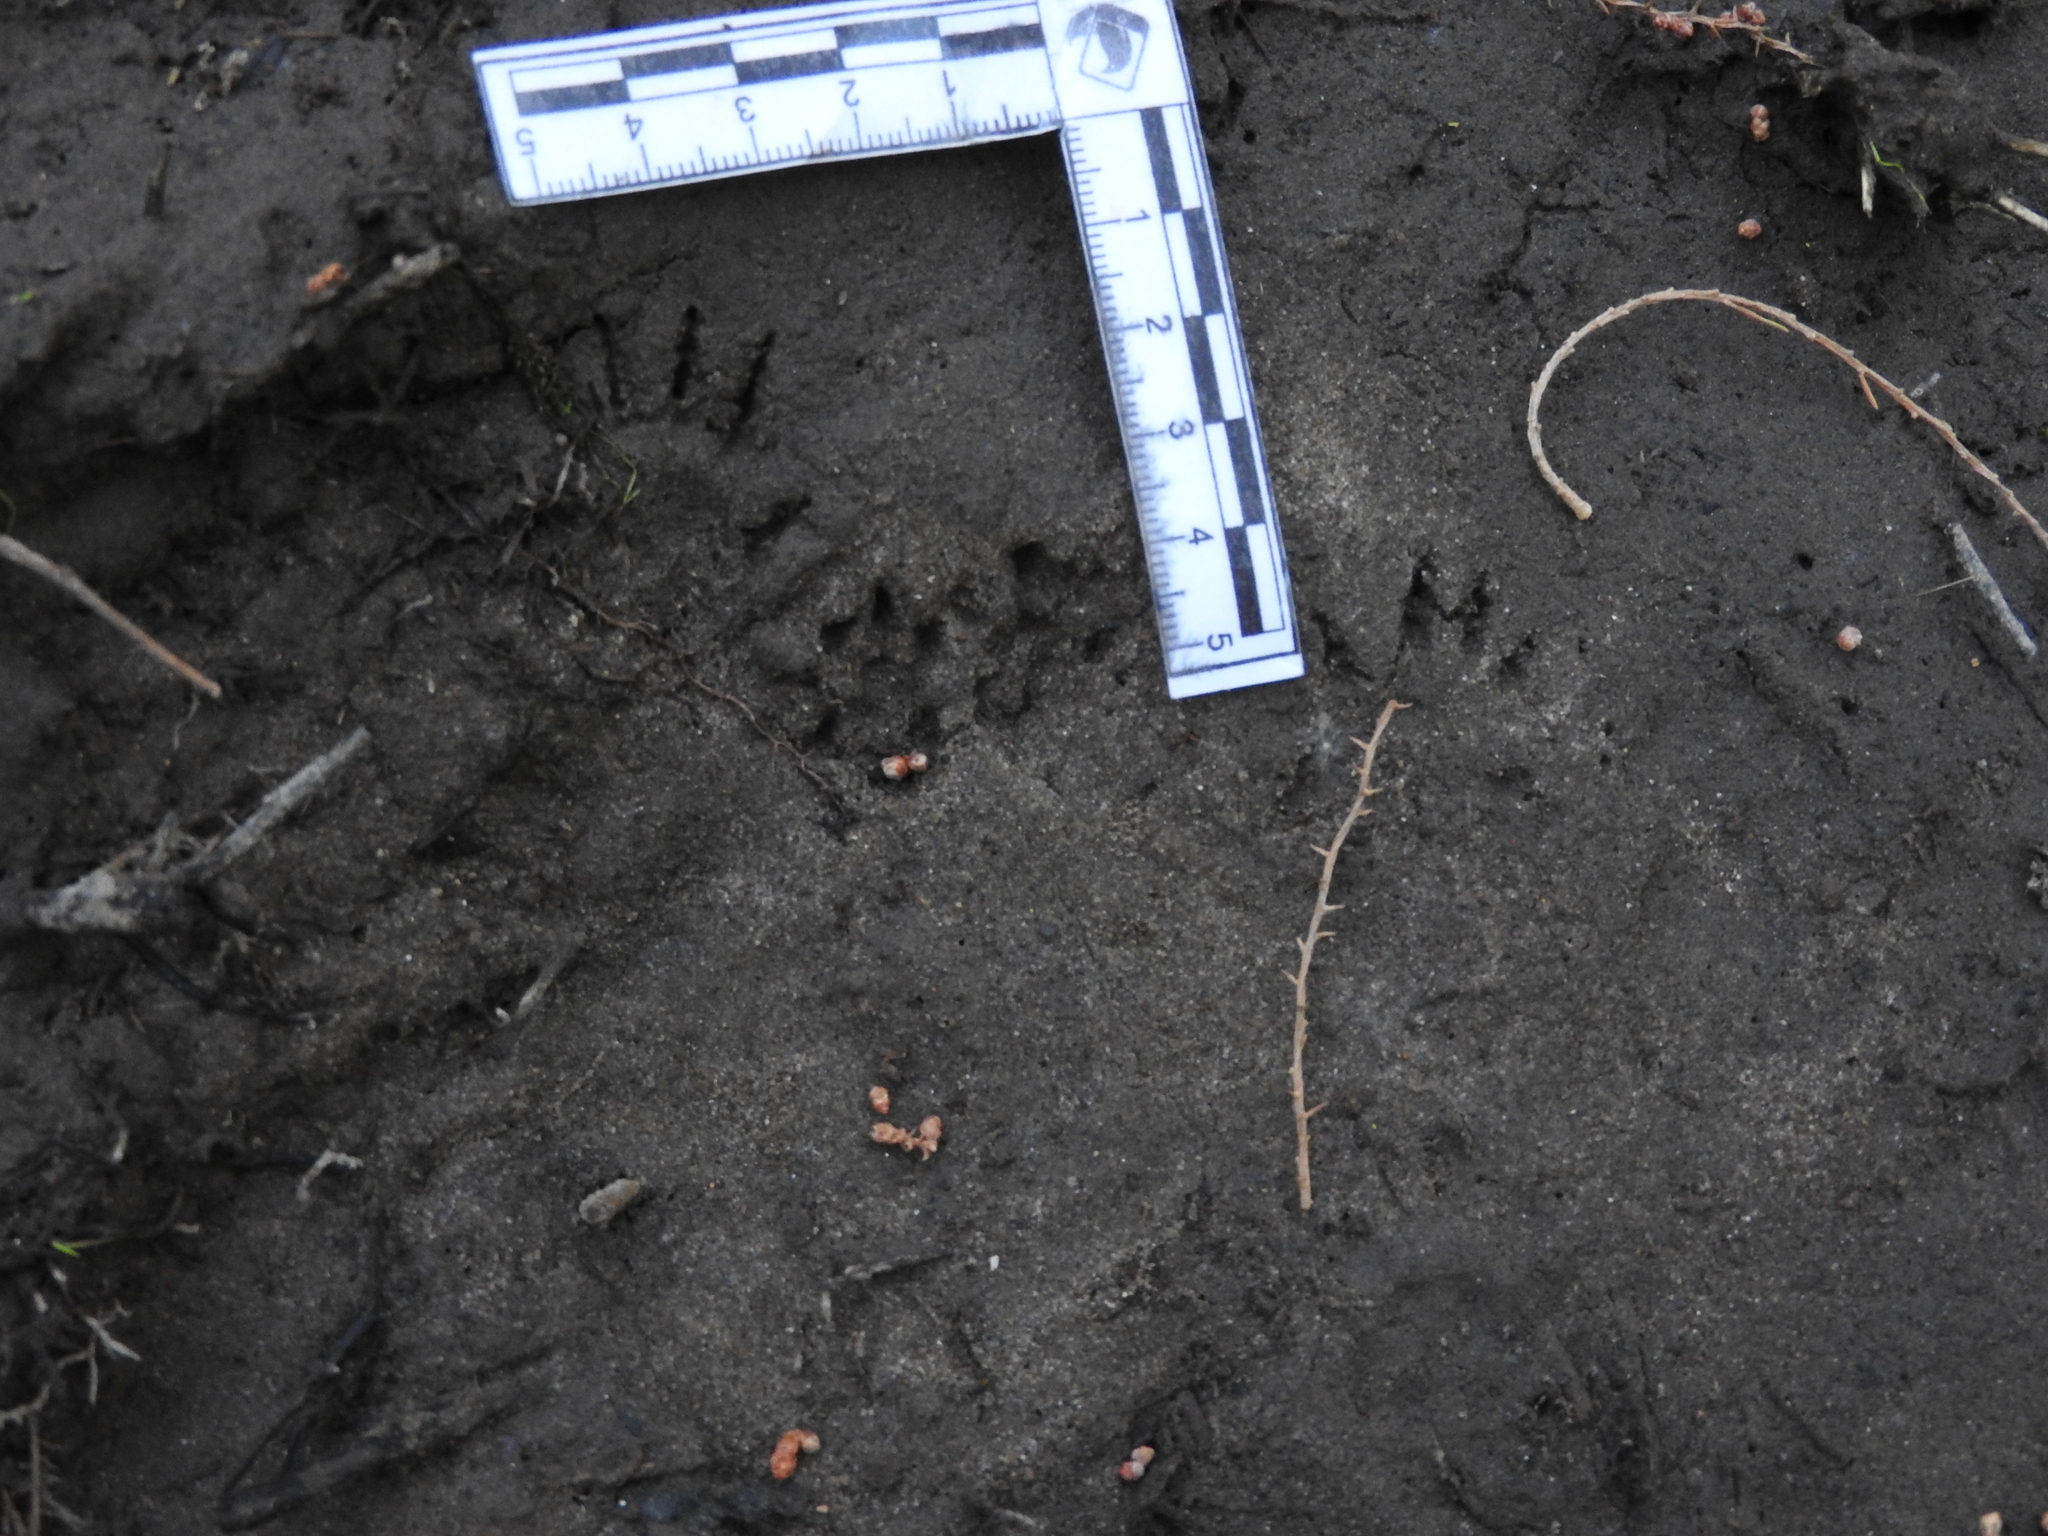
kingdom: Animalia
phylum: Chordata
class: Mammalia
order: Didelphimorphia
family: Didelphidae
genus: Didelphis
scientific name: Didelphis virginiana
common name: Virginia opossum
